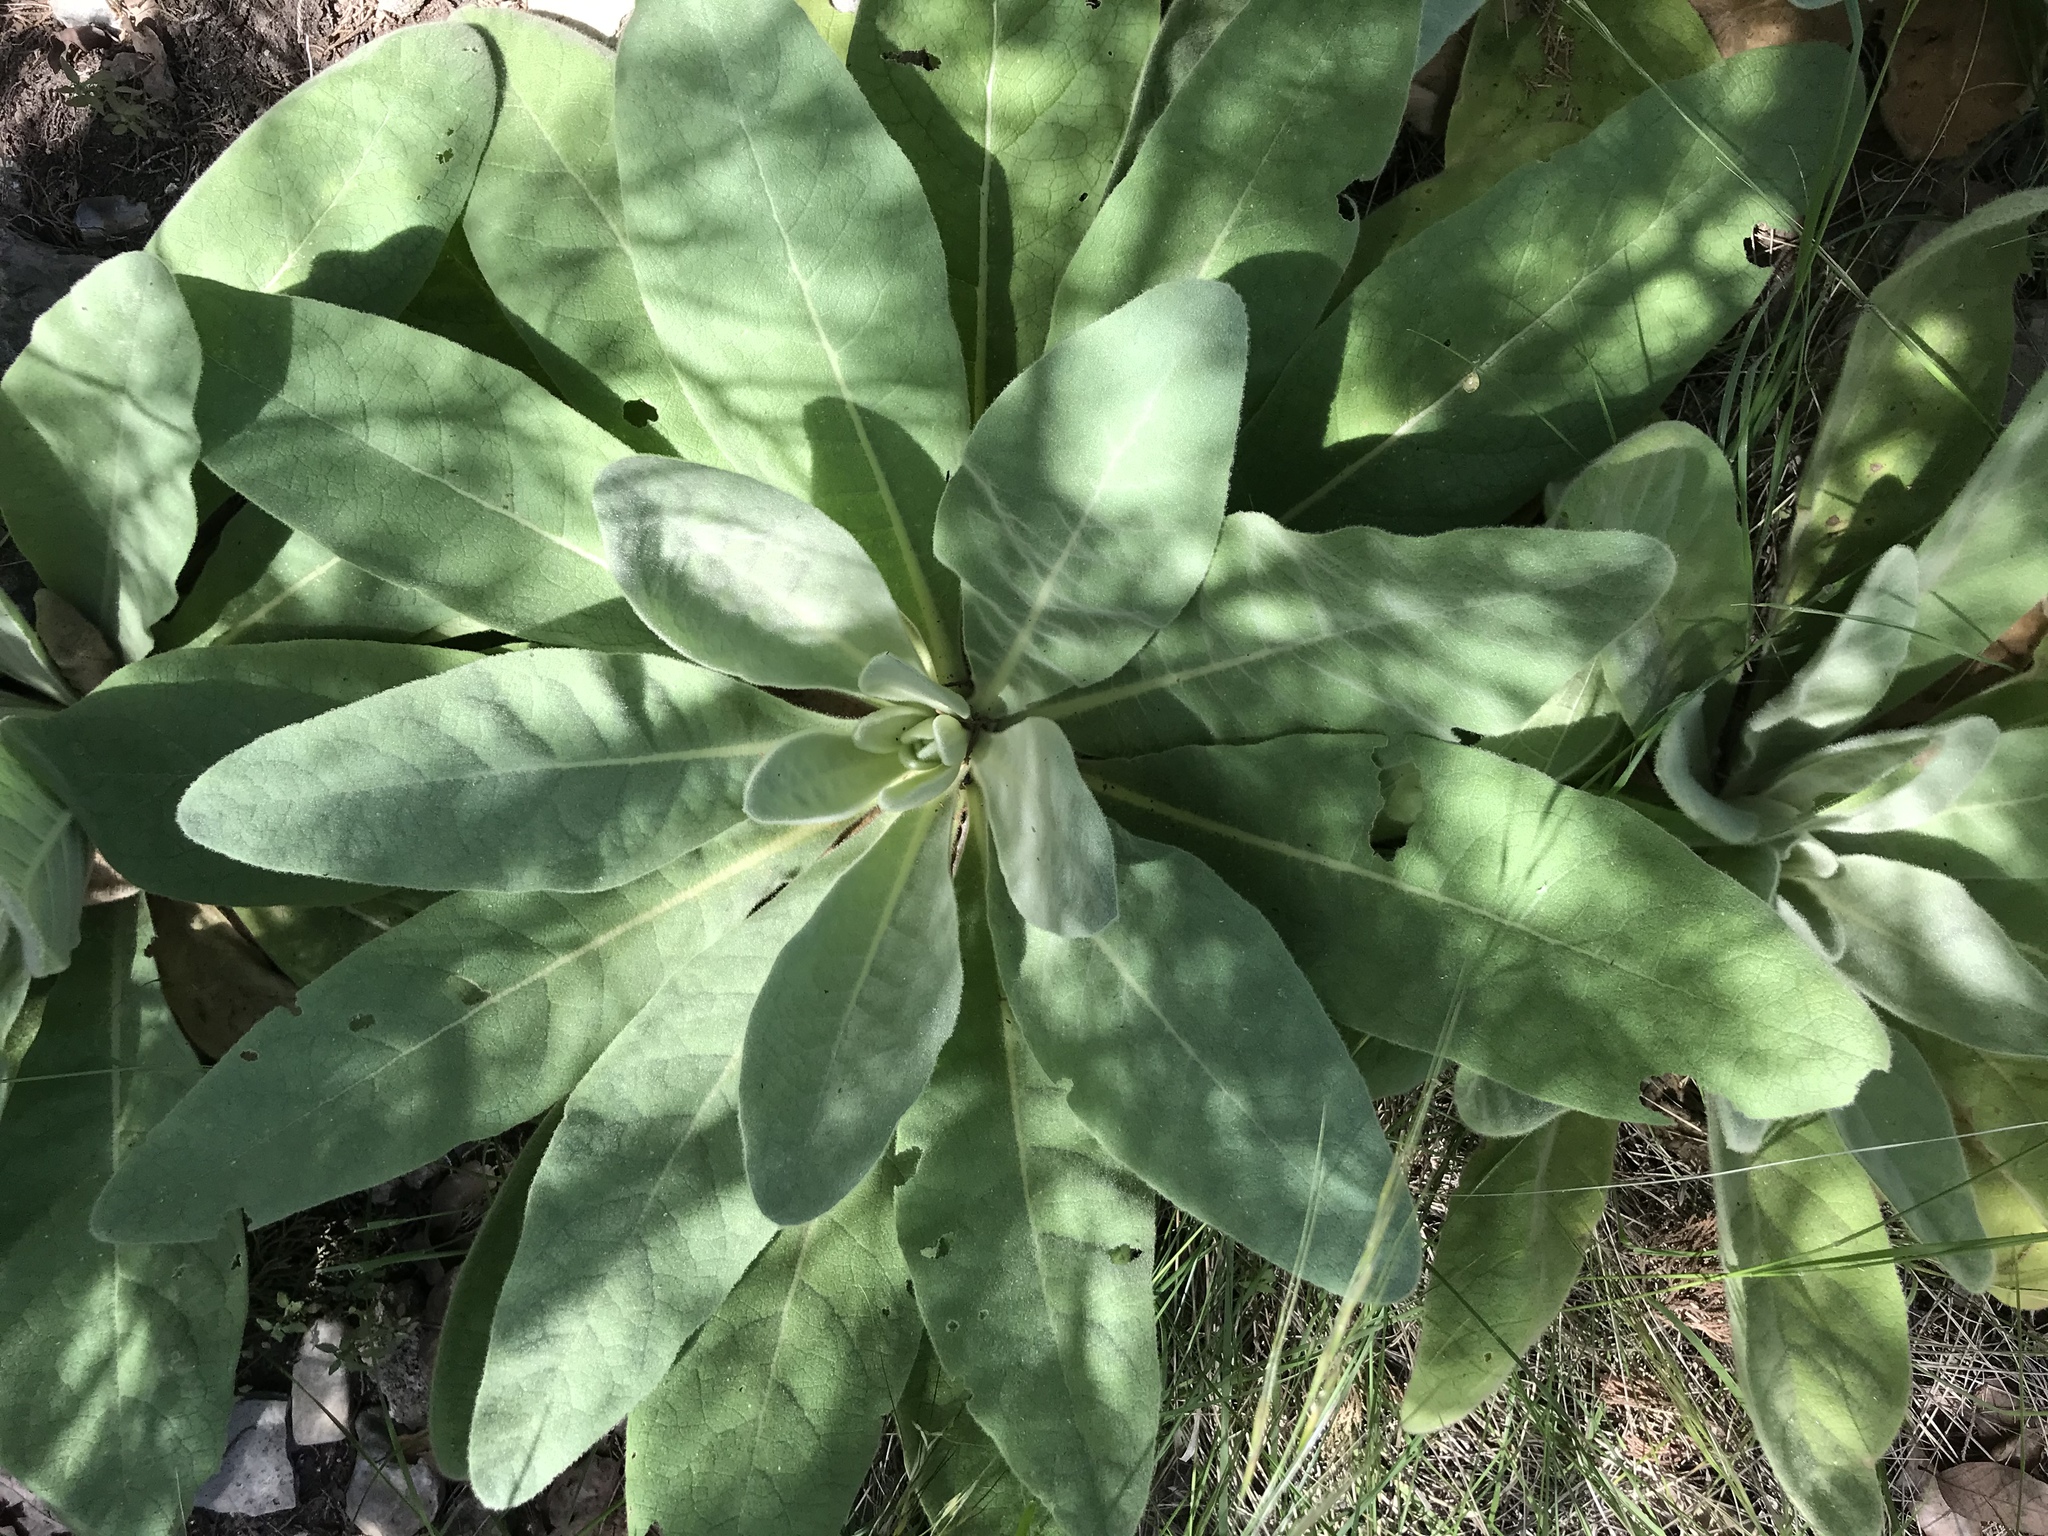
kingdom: Plantae
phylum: Tracheophyta
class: Magnoliopsida
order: Lamiales
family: Scrophulariaceae
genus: Verbascum
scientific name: Verbascum thapsus
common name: Common mullein
